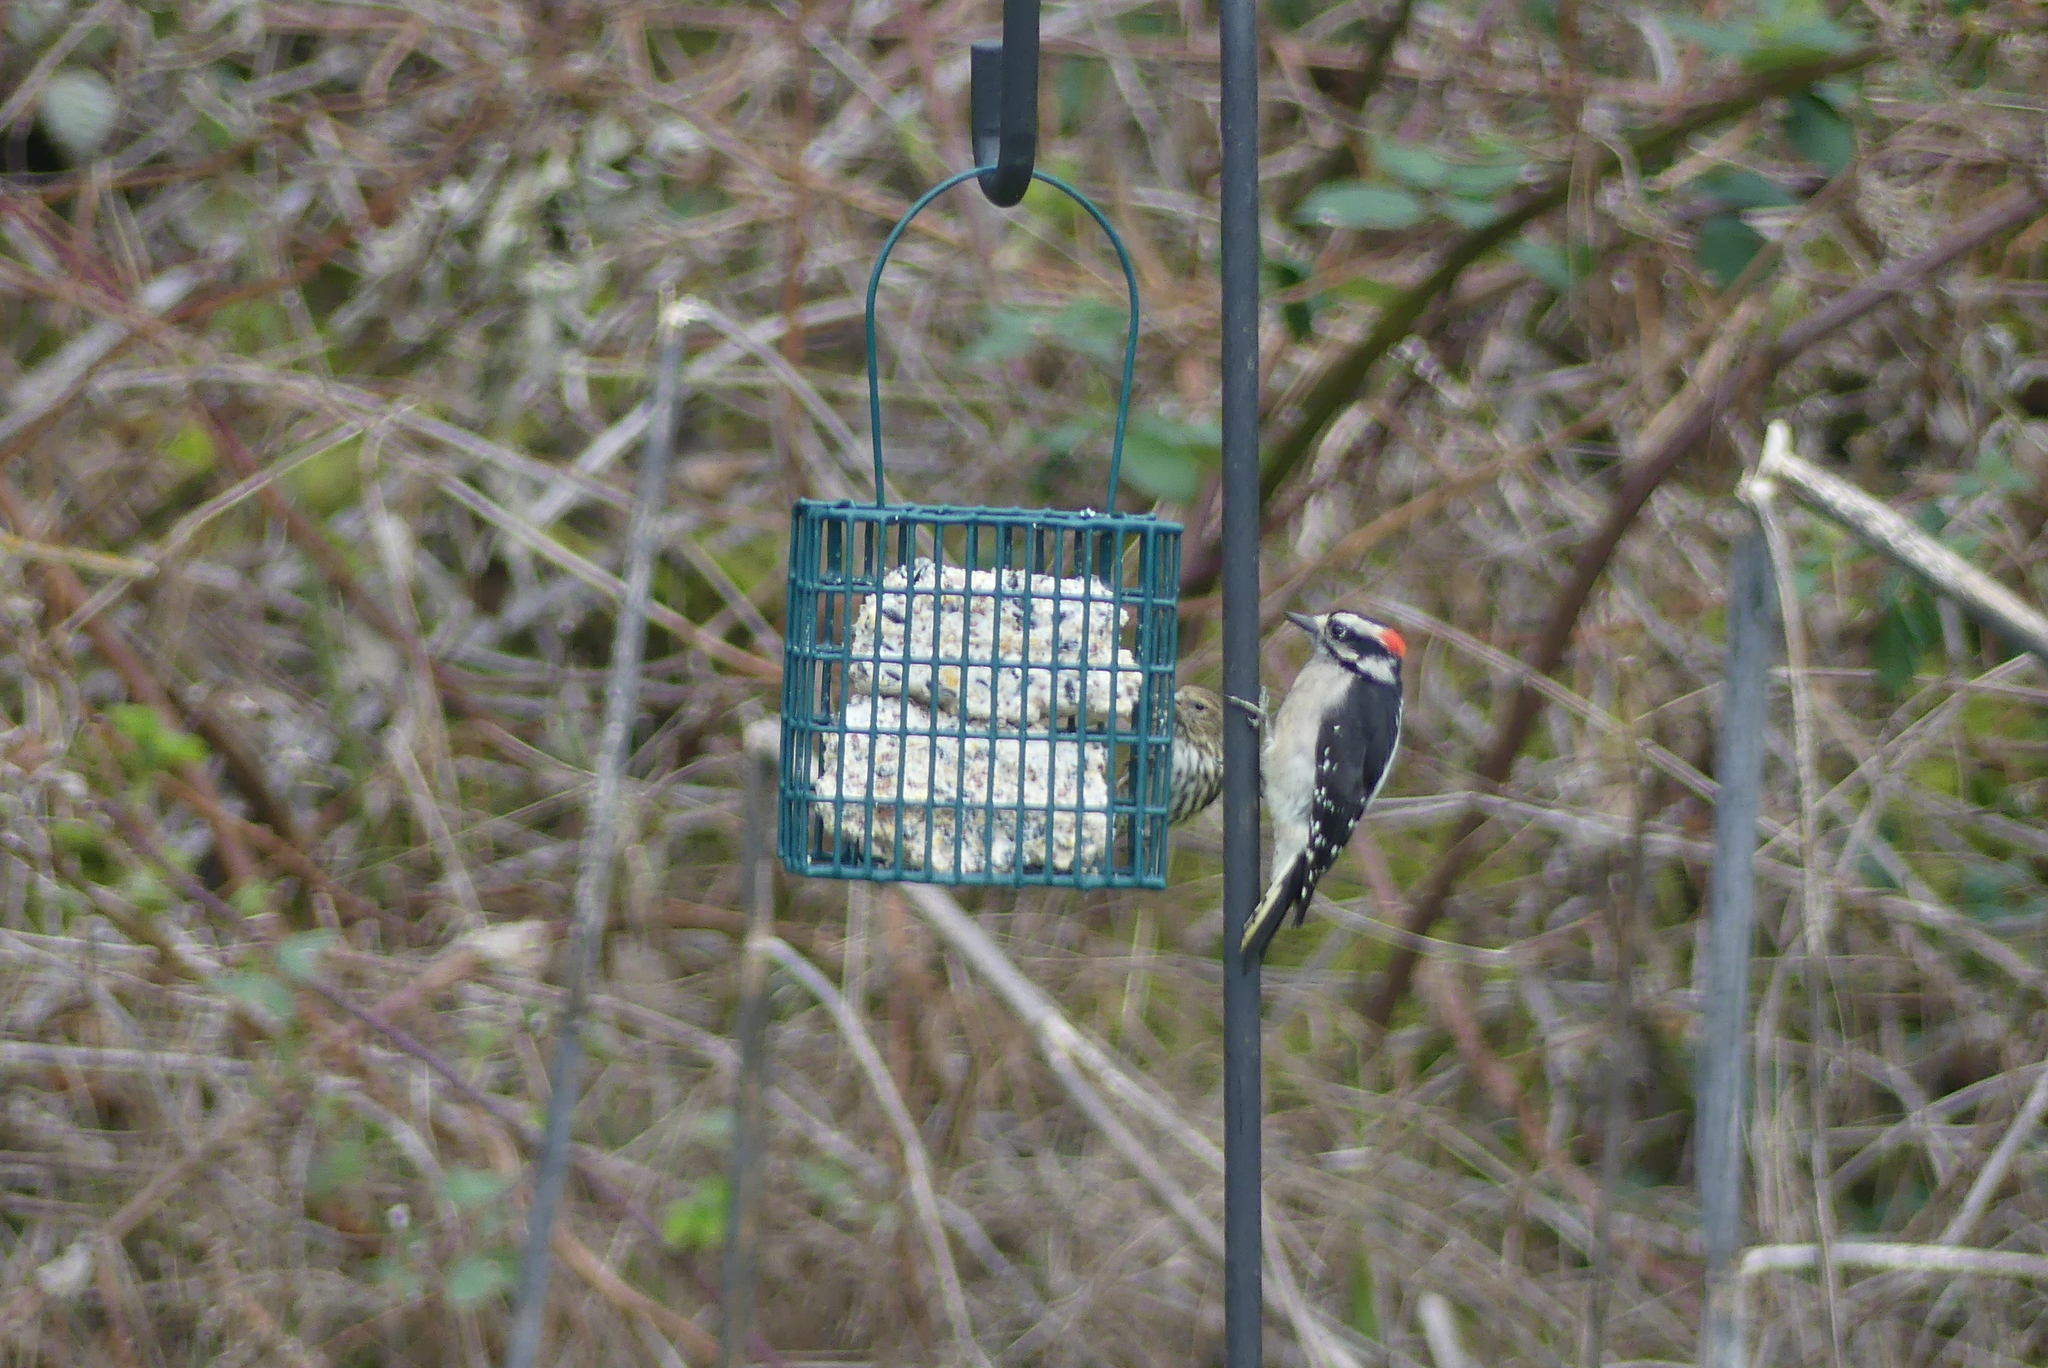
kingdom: Animalia
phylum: Chordata
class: Aves
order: Piciformes
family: Picidae
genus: Dryobates
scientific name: Dryobates pubescens
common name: Downy woodpecker
